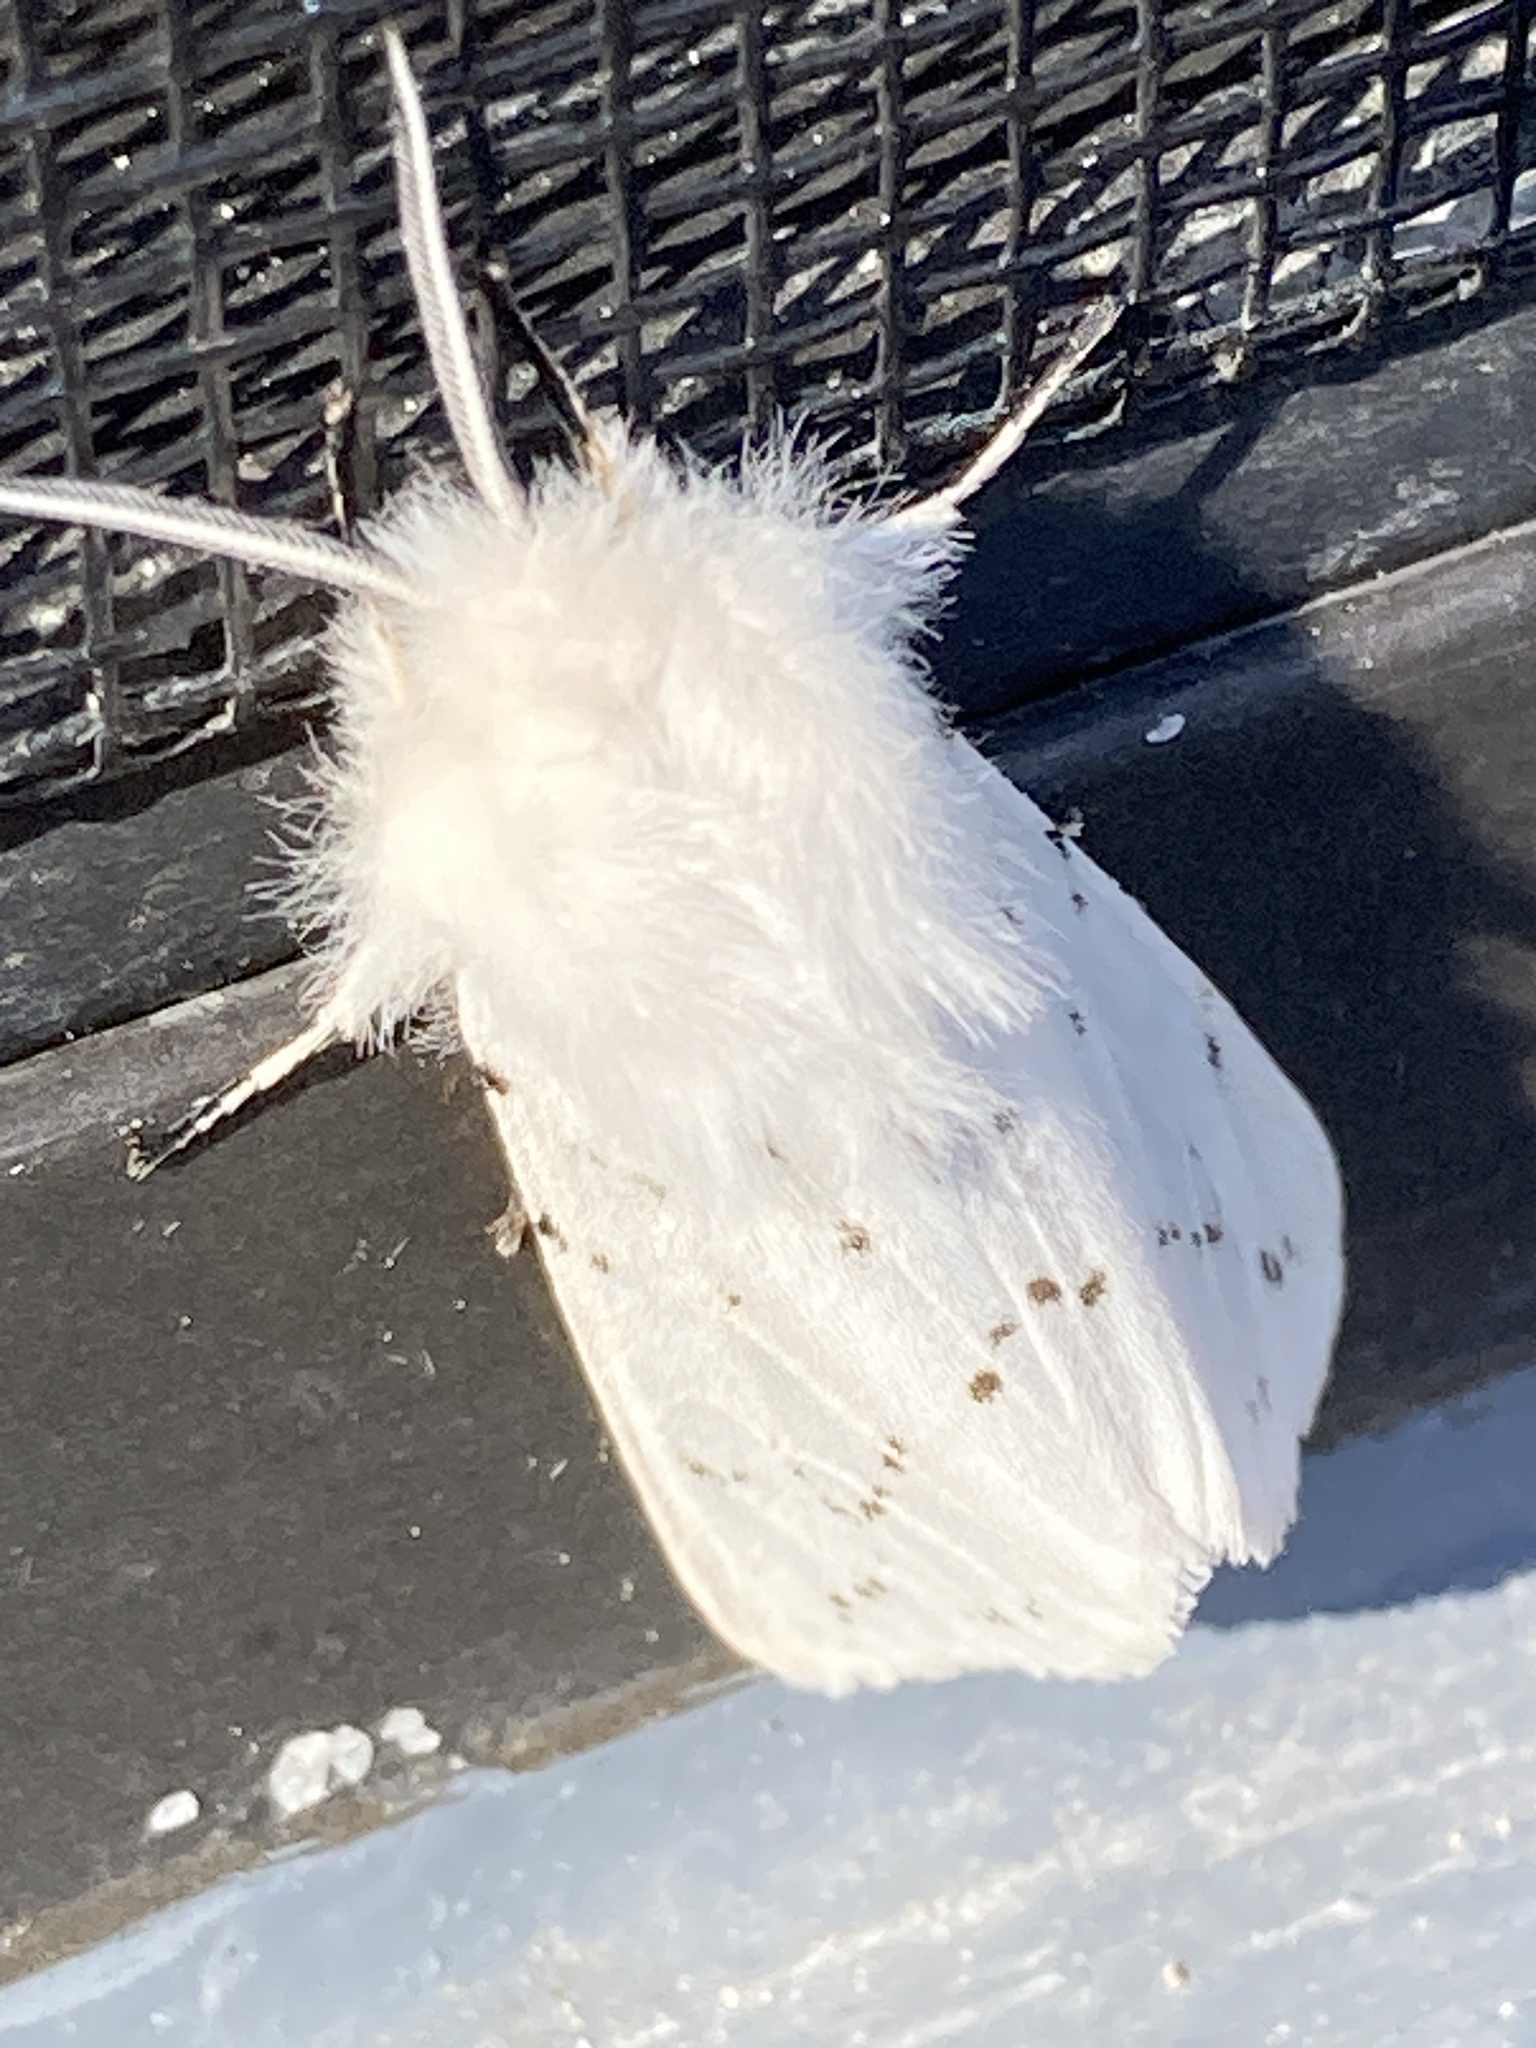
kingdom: Animalia
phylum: Arthropoda
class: Insecta
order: Lepidoptera
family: Erebidae
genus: Spilosoma
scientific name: Spilosoma dubia
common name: Dubious tiger moth
